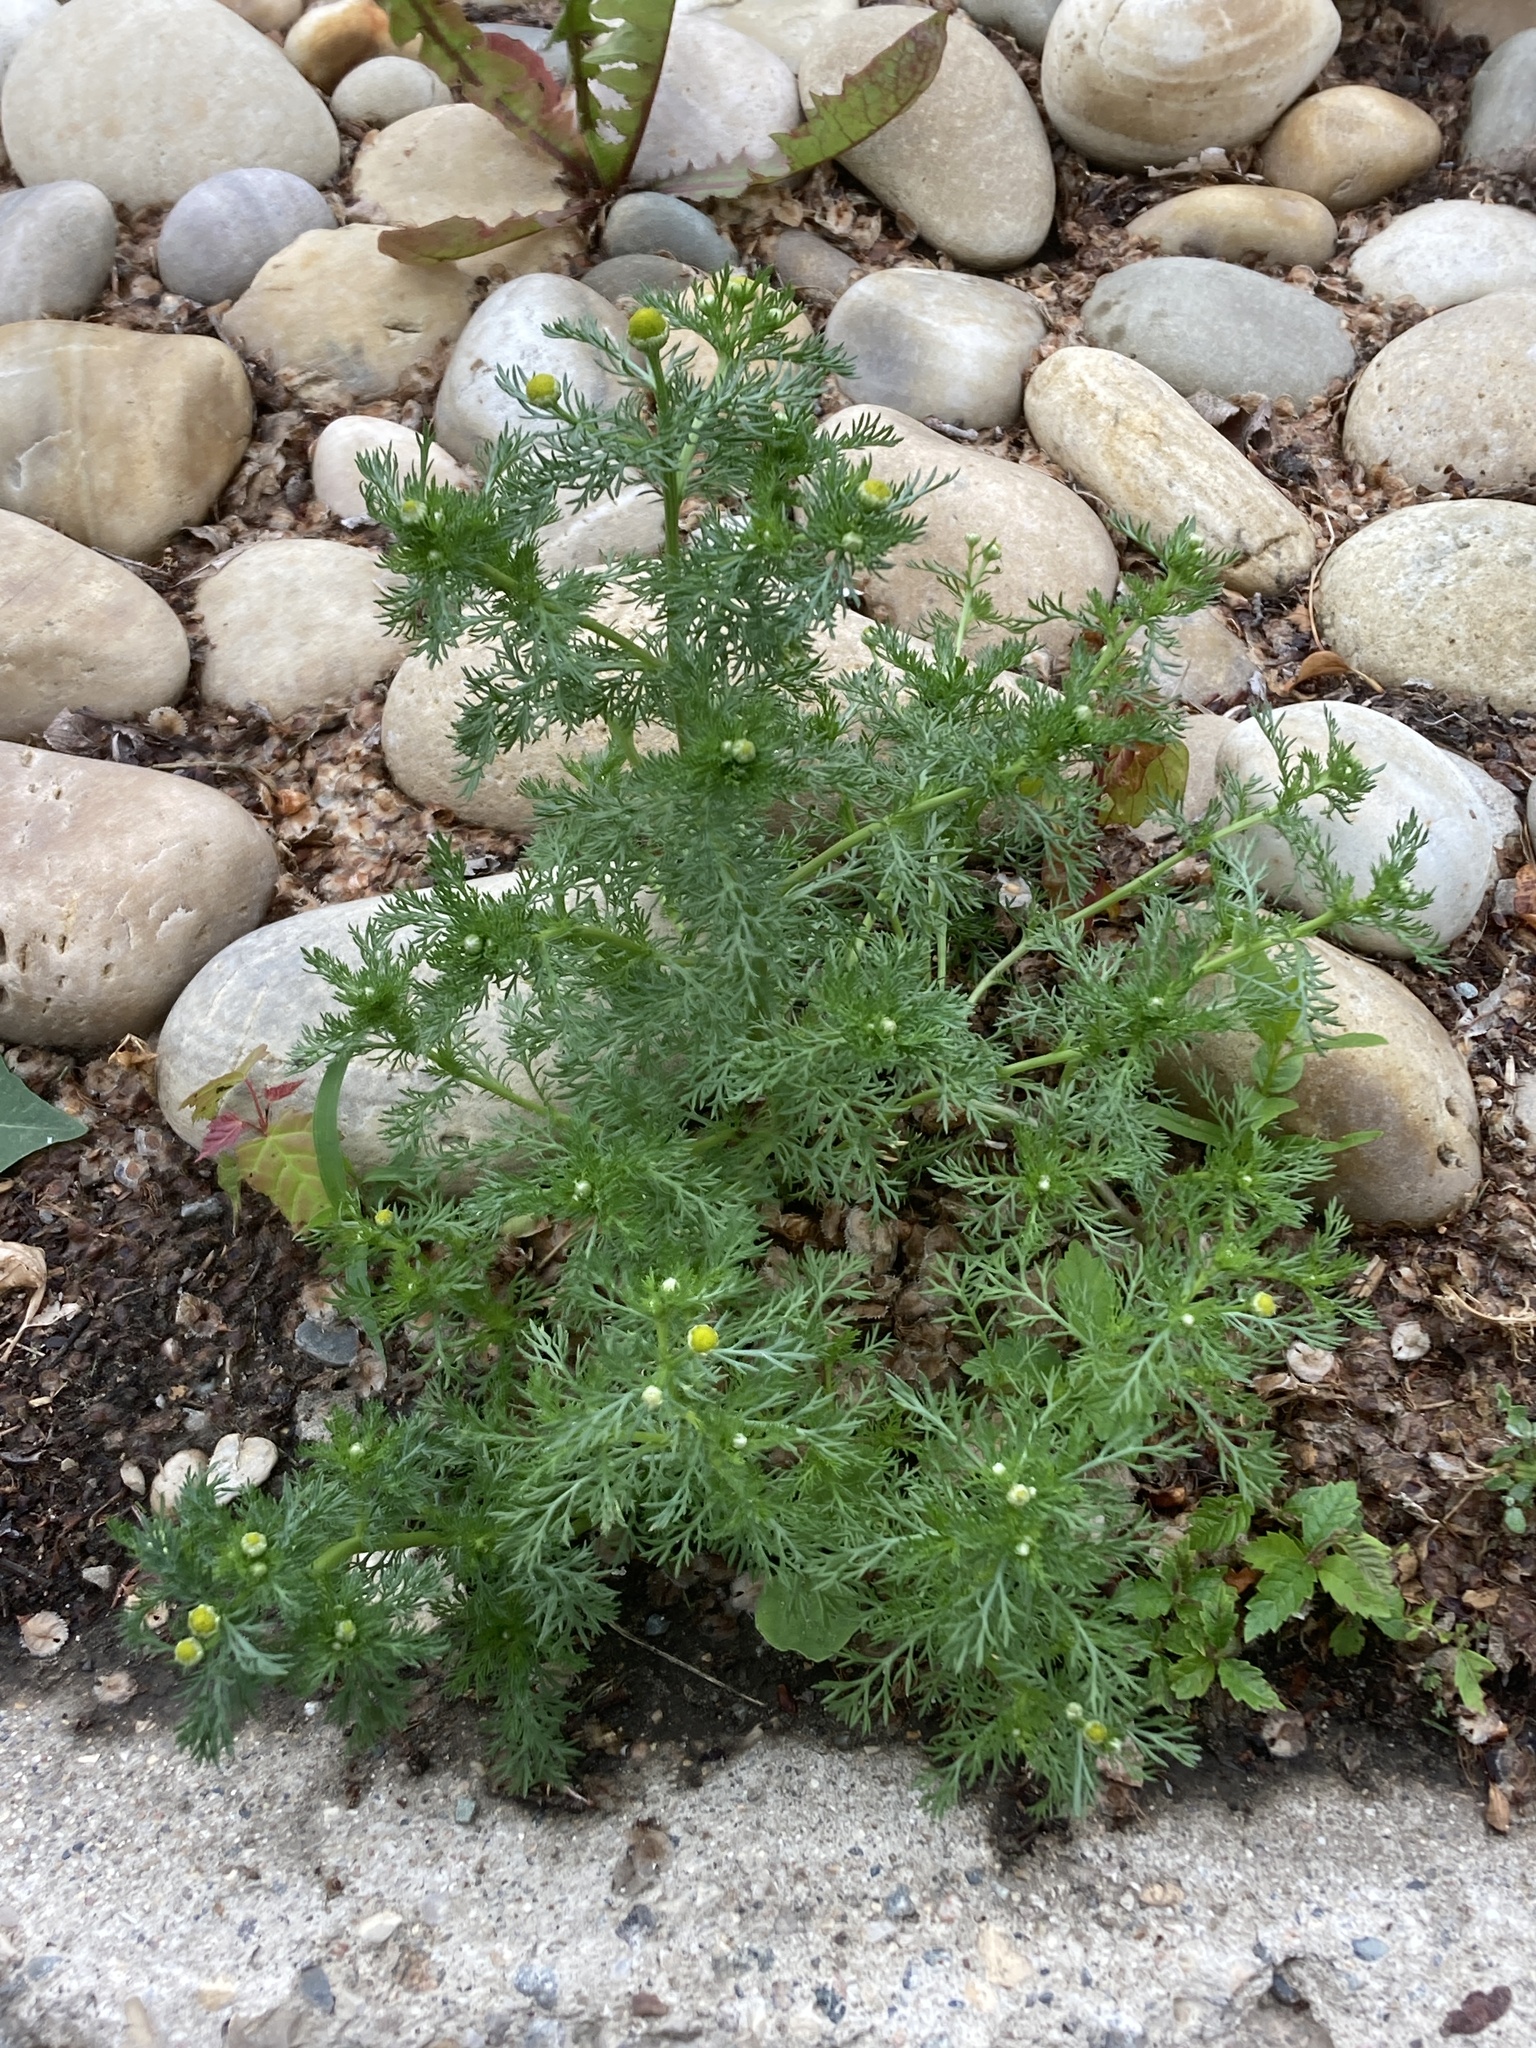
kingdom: Plantae
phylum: Tracheophyta
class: Magnoliopsida
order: Asterales
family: Asteraceae
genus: Matricaria
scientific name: Matricaria discoidea
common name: Disc mayweed
